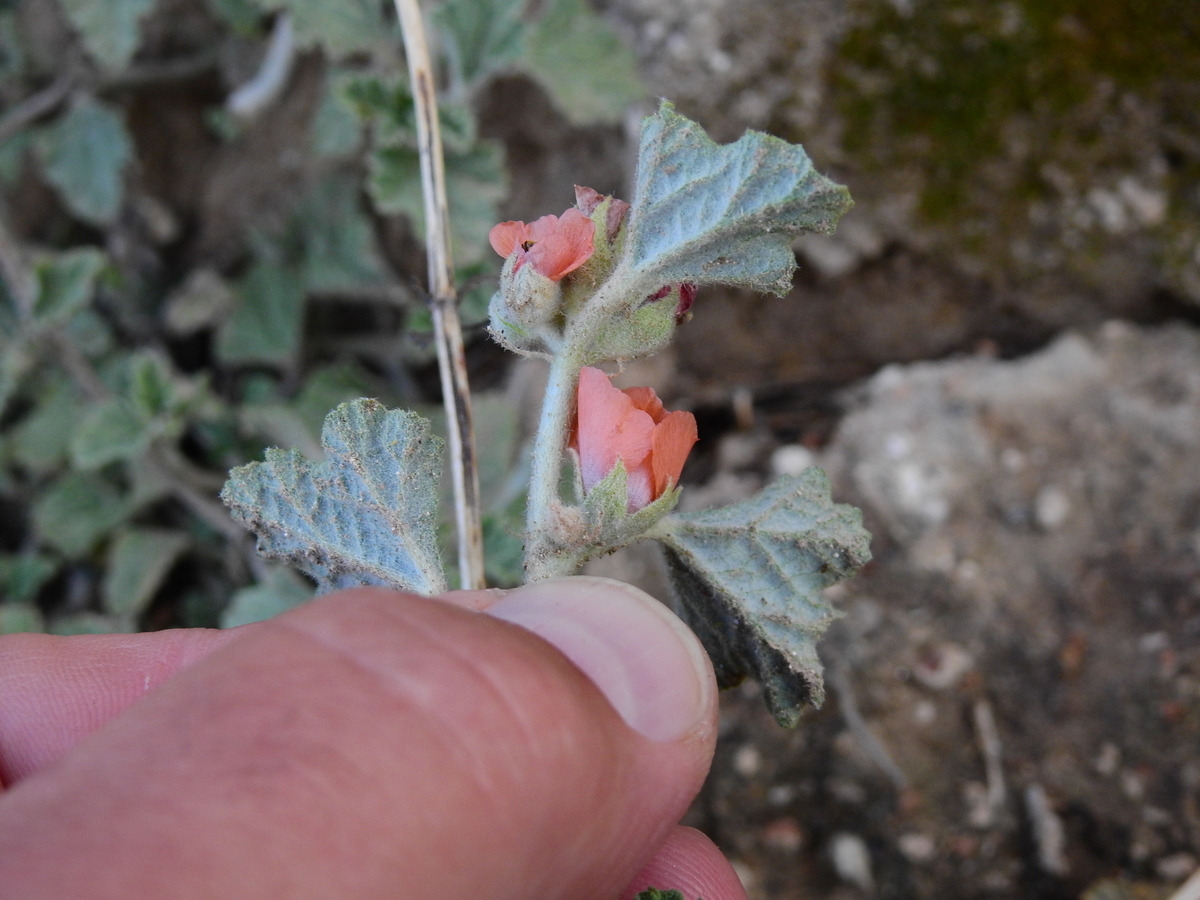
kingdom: Plantae
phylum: Tracheophyta
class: Magnoliopsida
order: Malvales
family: Malvaceae
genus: Sphaeralcea
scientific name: Sphaeralcea cordobensis
